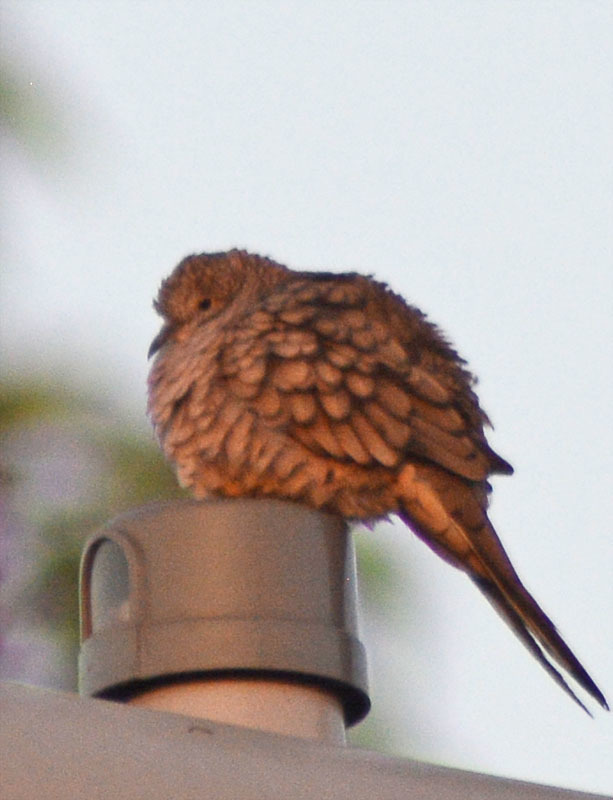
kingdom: Animalia
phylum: Chordata
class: Aves
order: Columbiformes
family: Columbidae
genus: Columbina
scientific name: Columbina inca
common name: Inca dove
